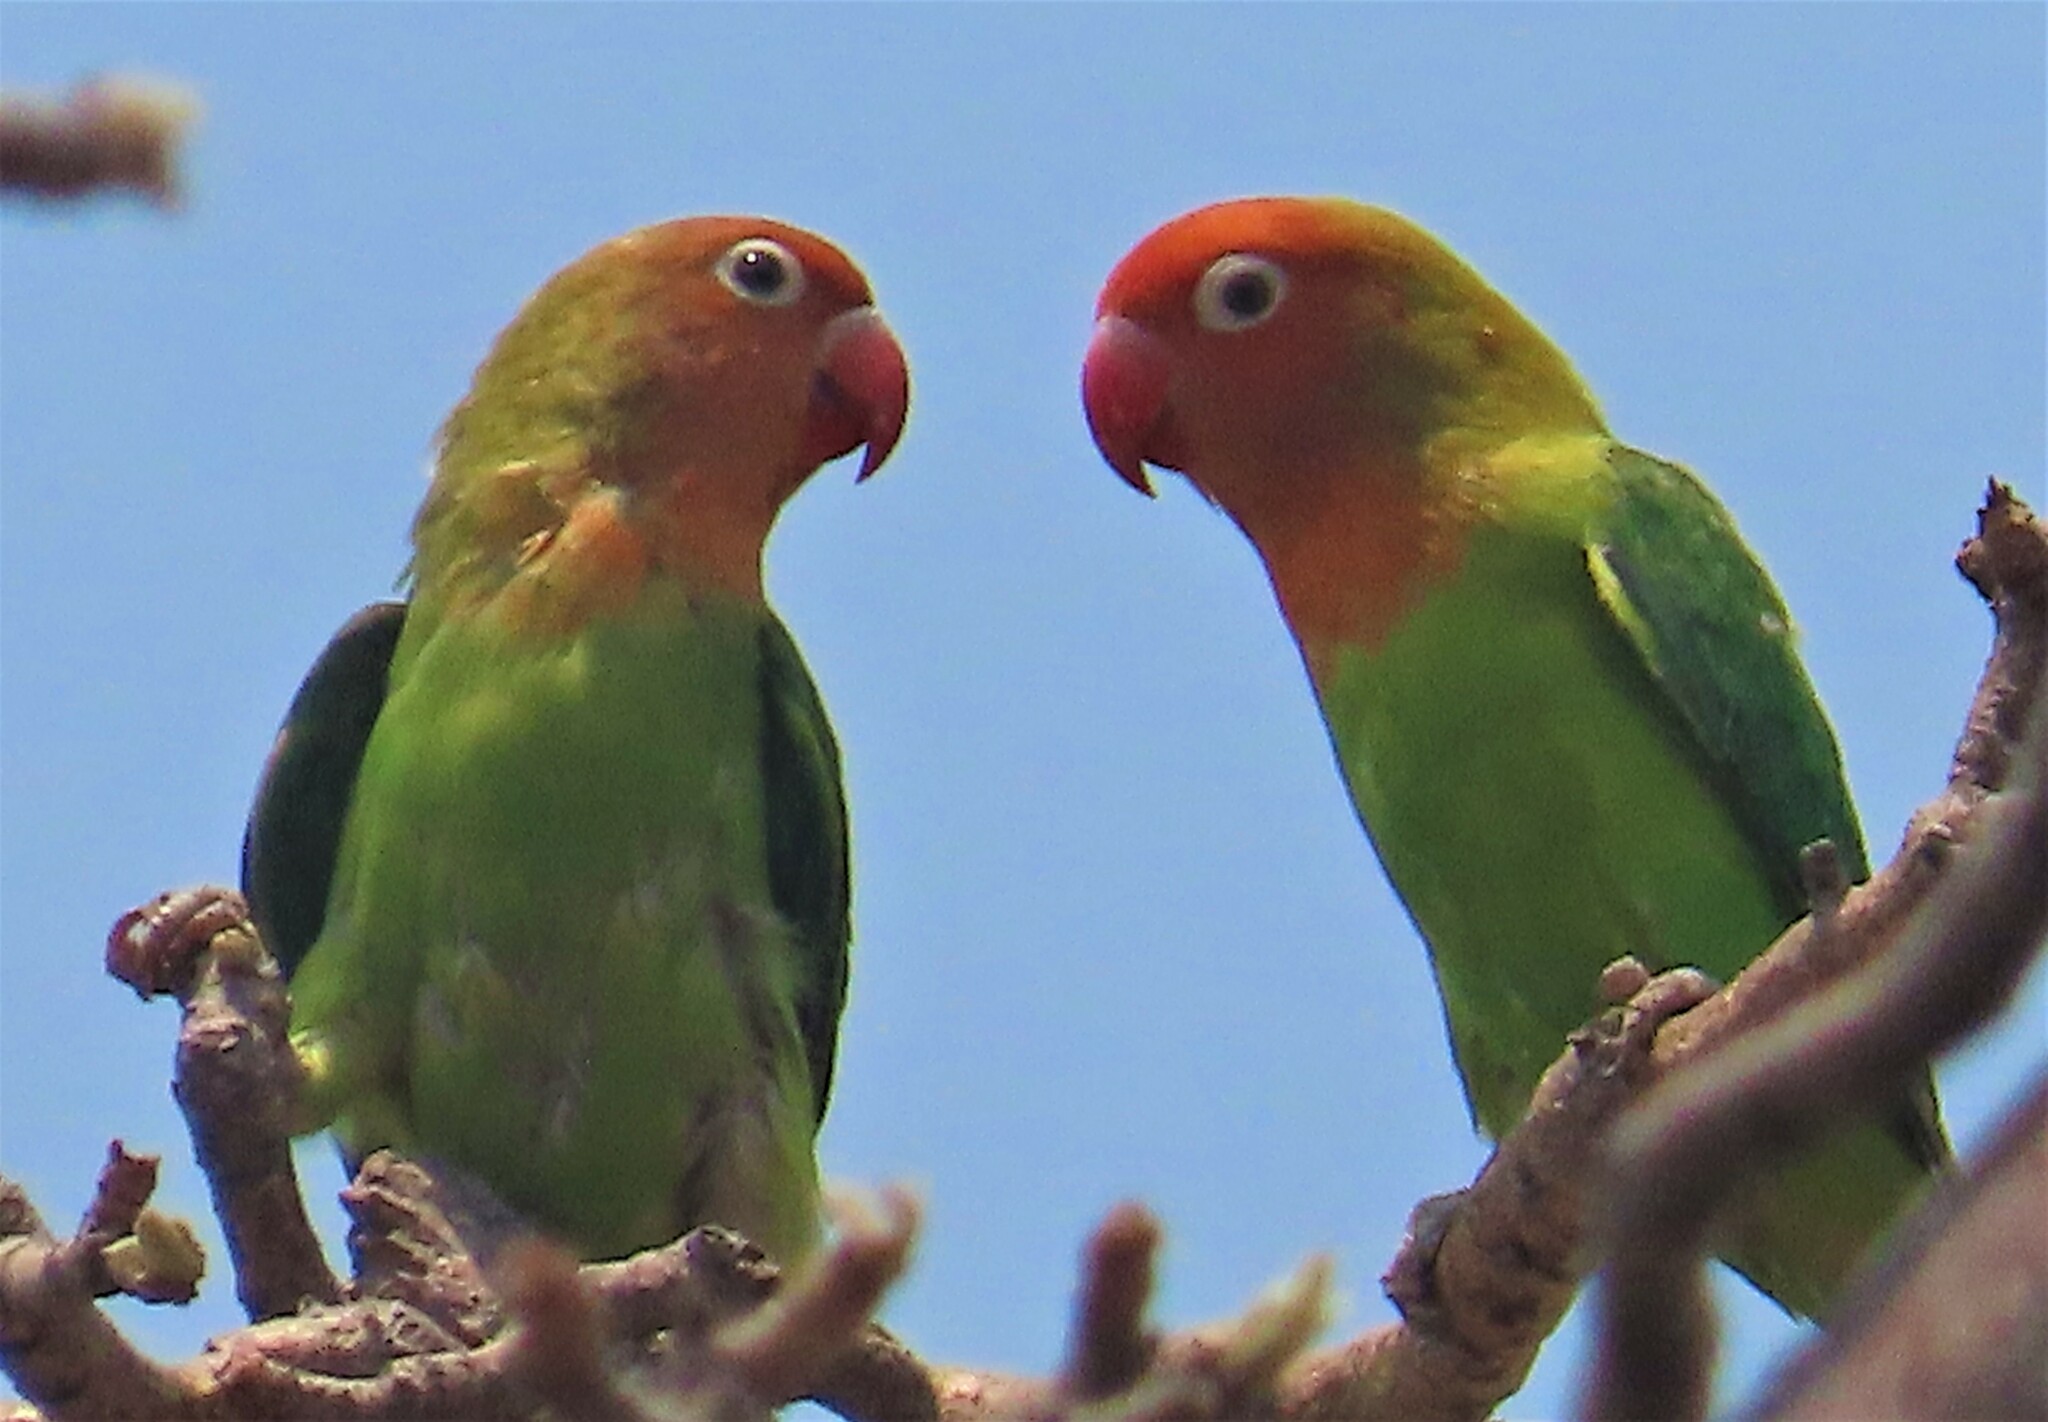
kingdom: Animalia
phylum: Chordata
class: Aves
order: Psittaciformes
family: Psittacidae
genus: Agapornis
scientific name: Agapornis lilianae
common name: Lilian's lovebird
